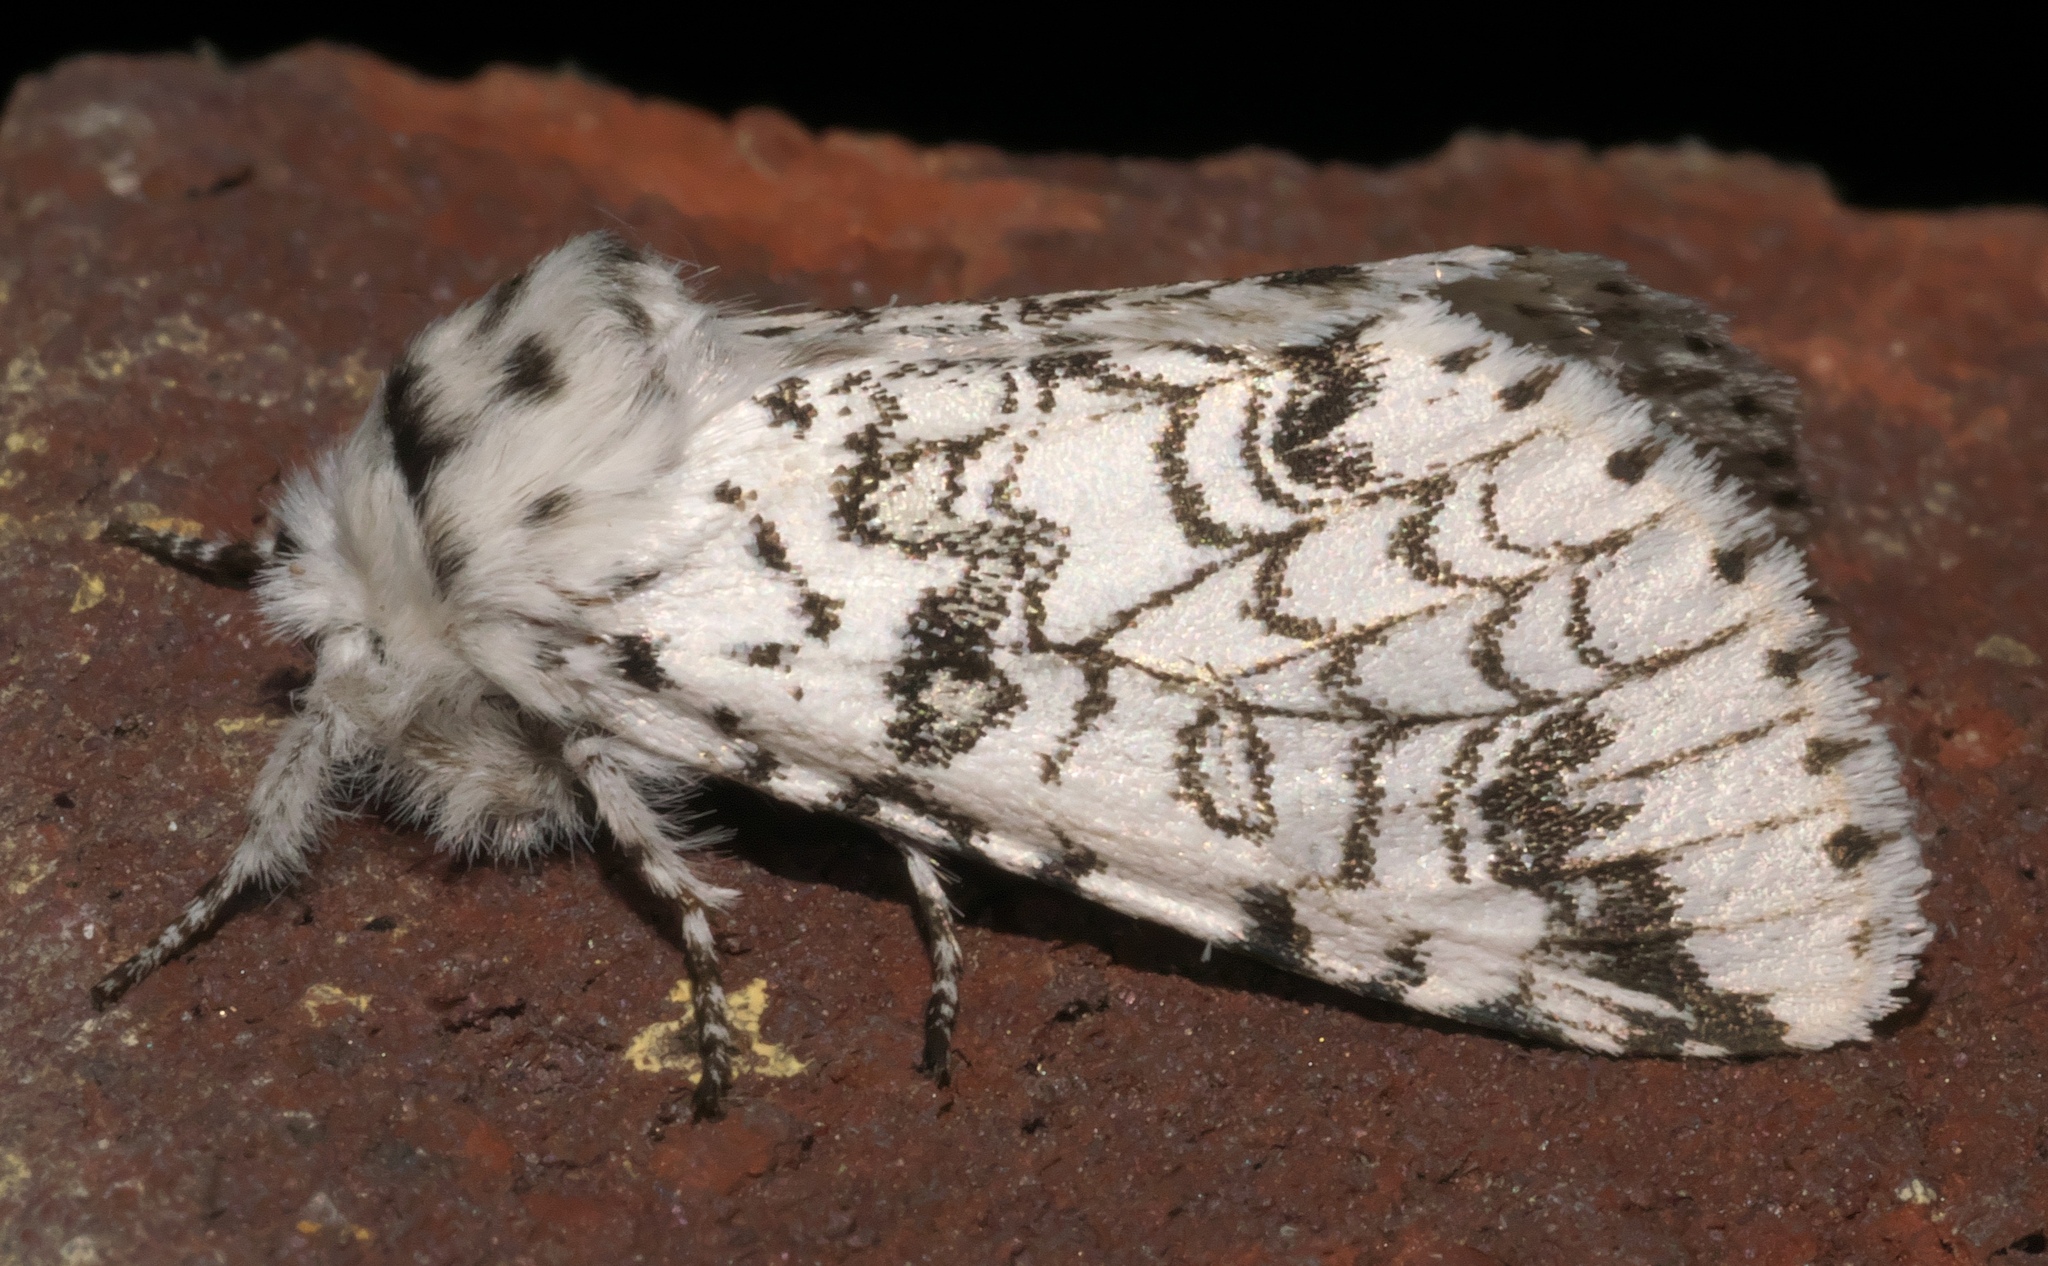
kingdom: Animalia
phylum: Arthropoda
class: Insecta
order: Lepidoptera
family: Notodontidae
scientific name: Notodontidae
